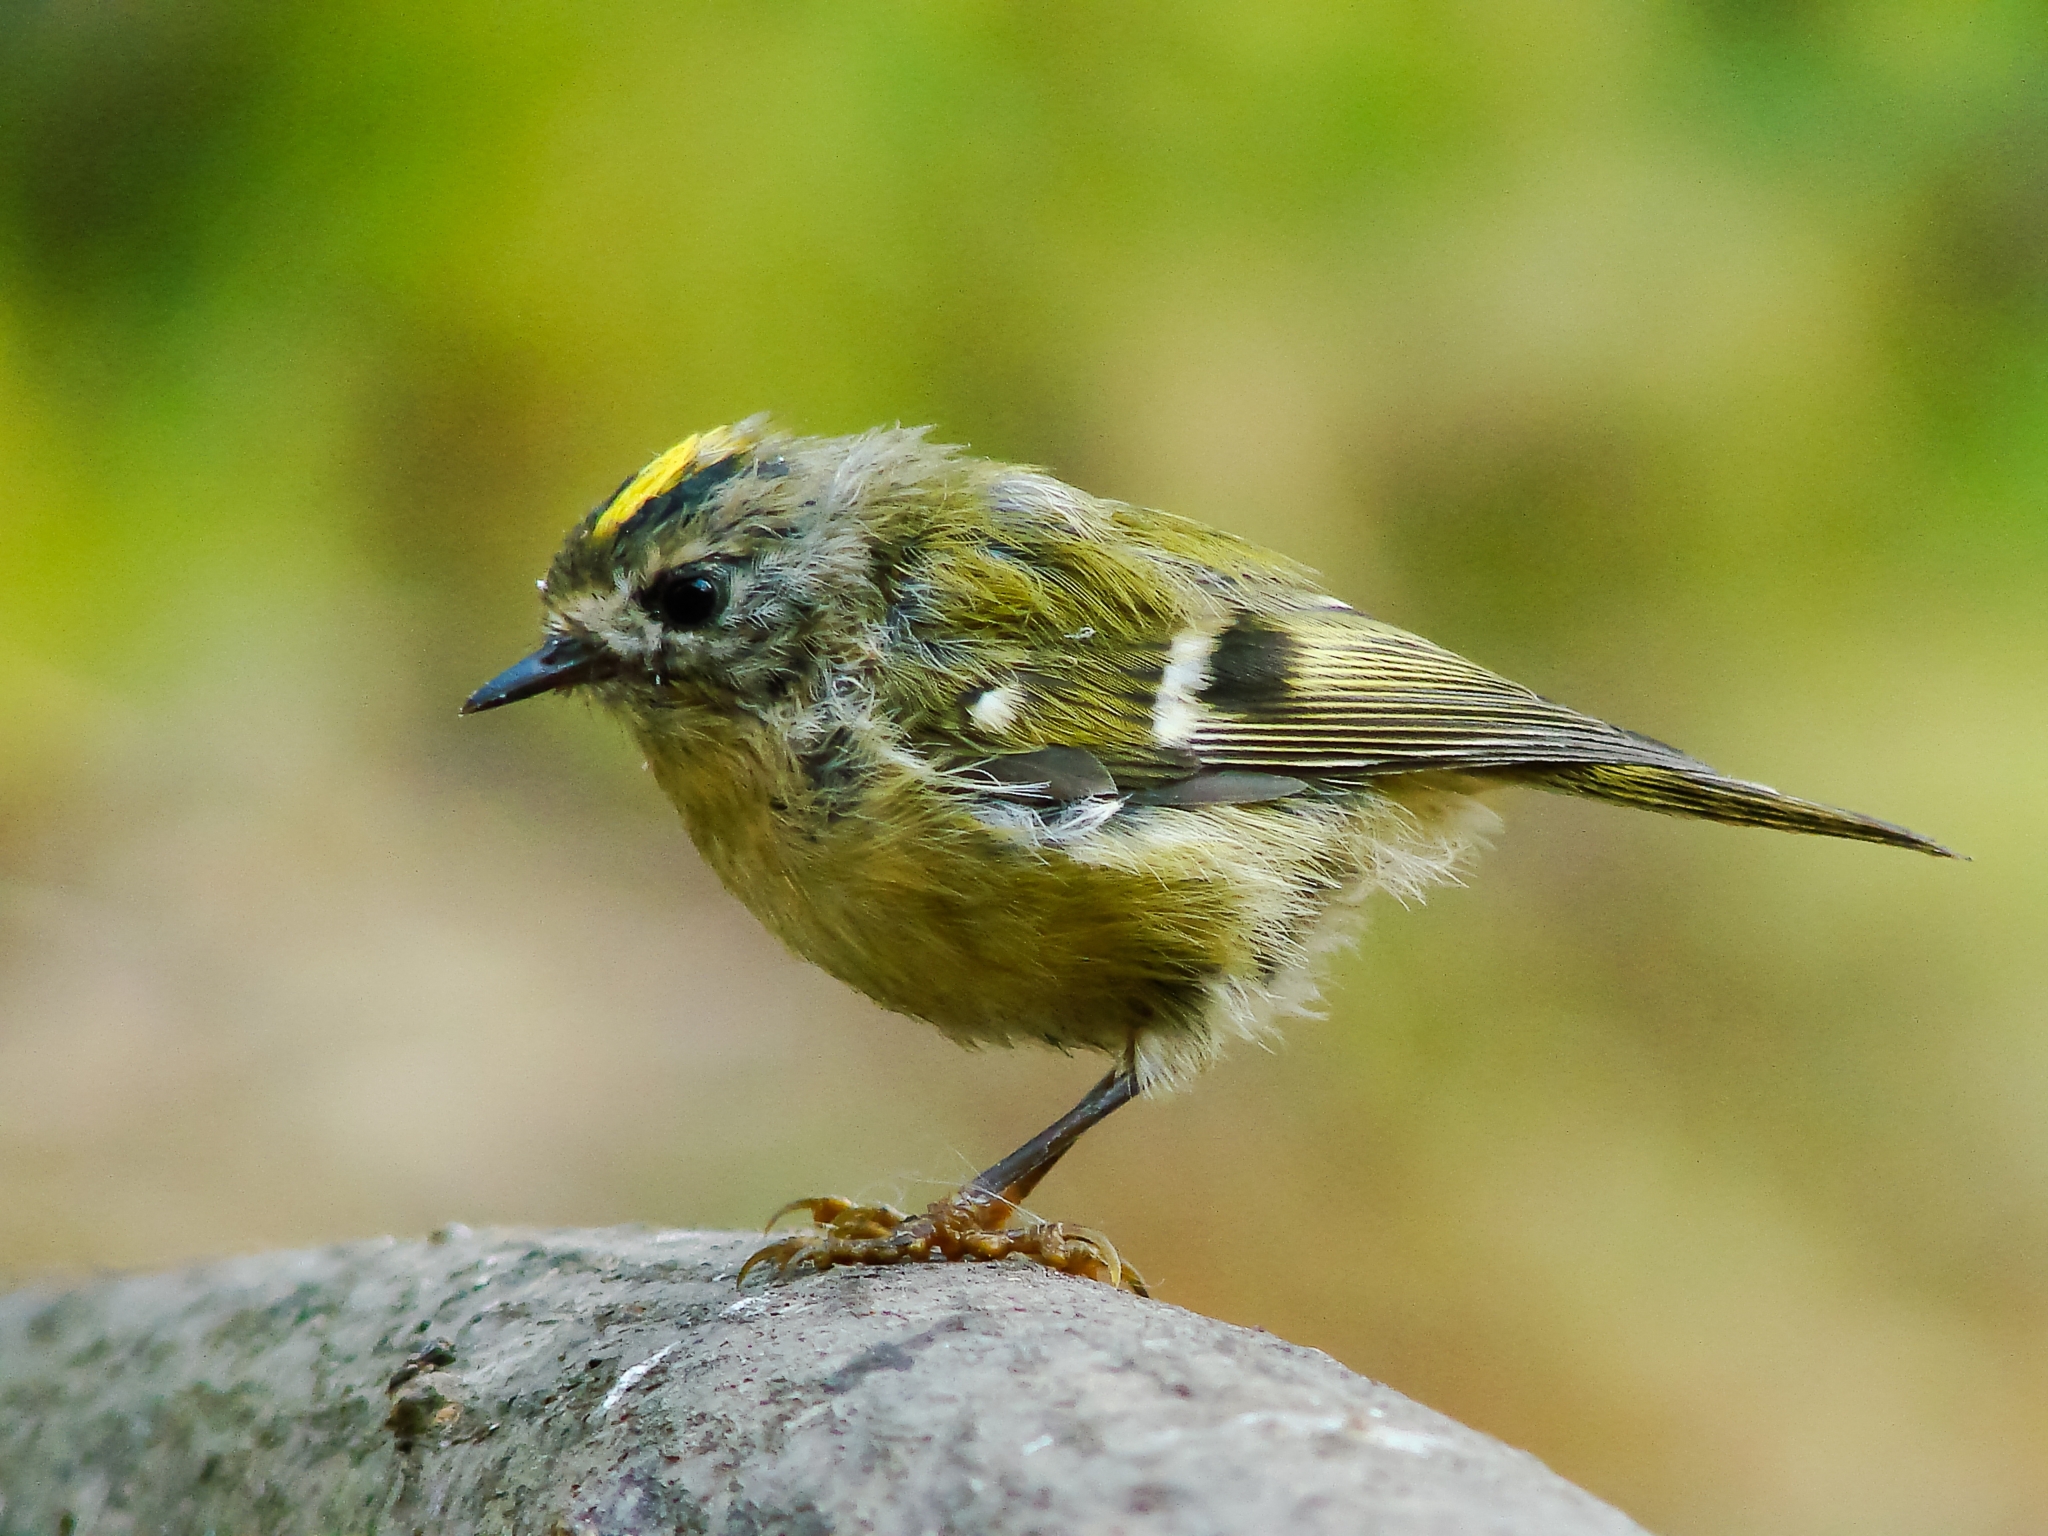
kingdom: Animalia
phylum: Chordata
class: Aves
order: Passeriformes
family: Regulidae
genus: Regulus
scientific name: Regulus regulus
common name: Goldcrest
